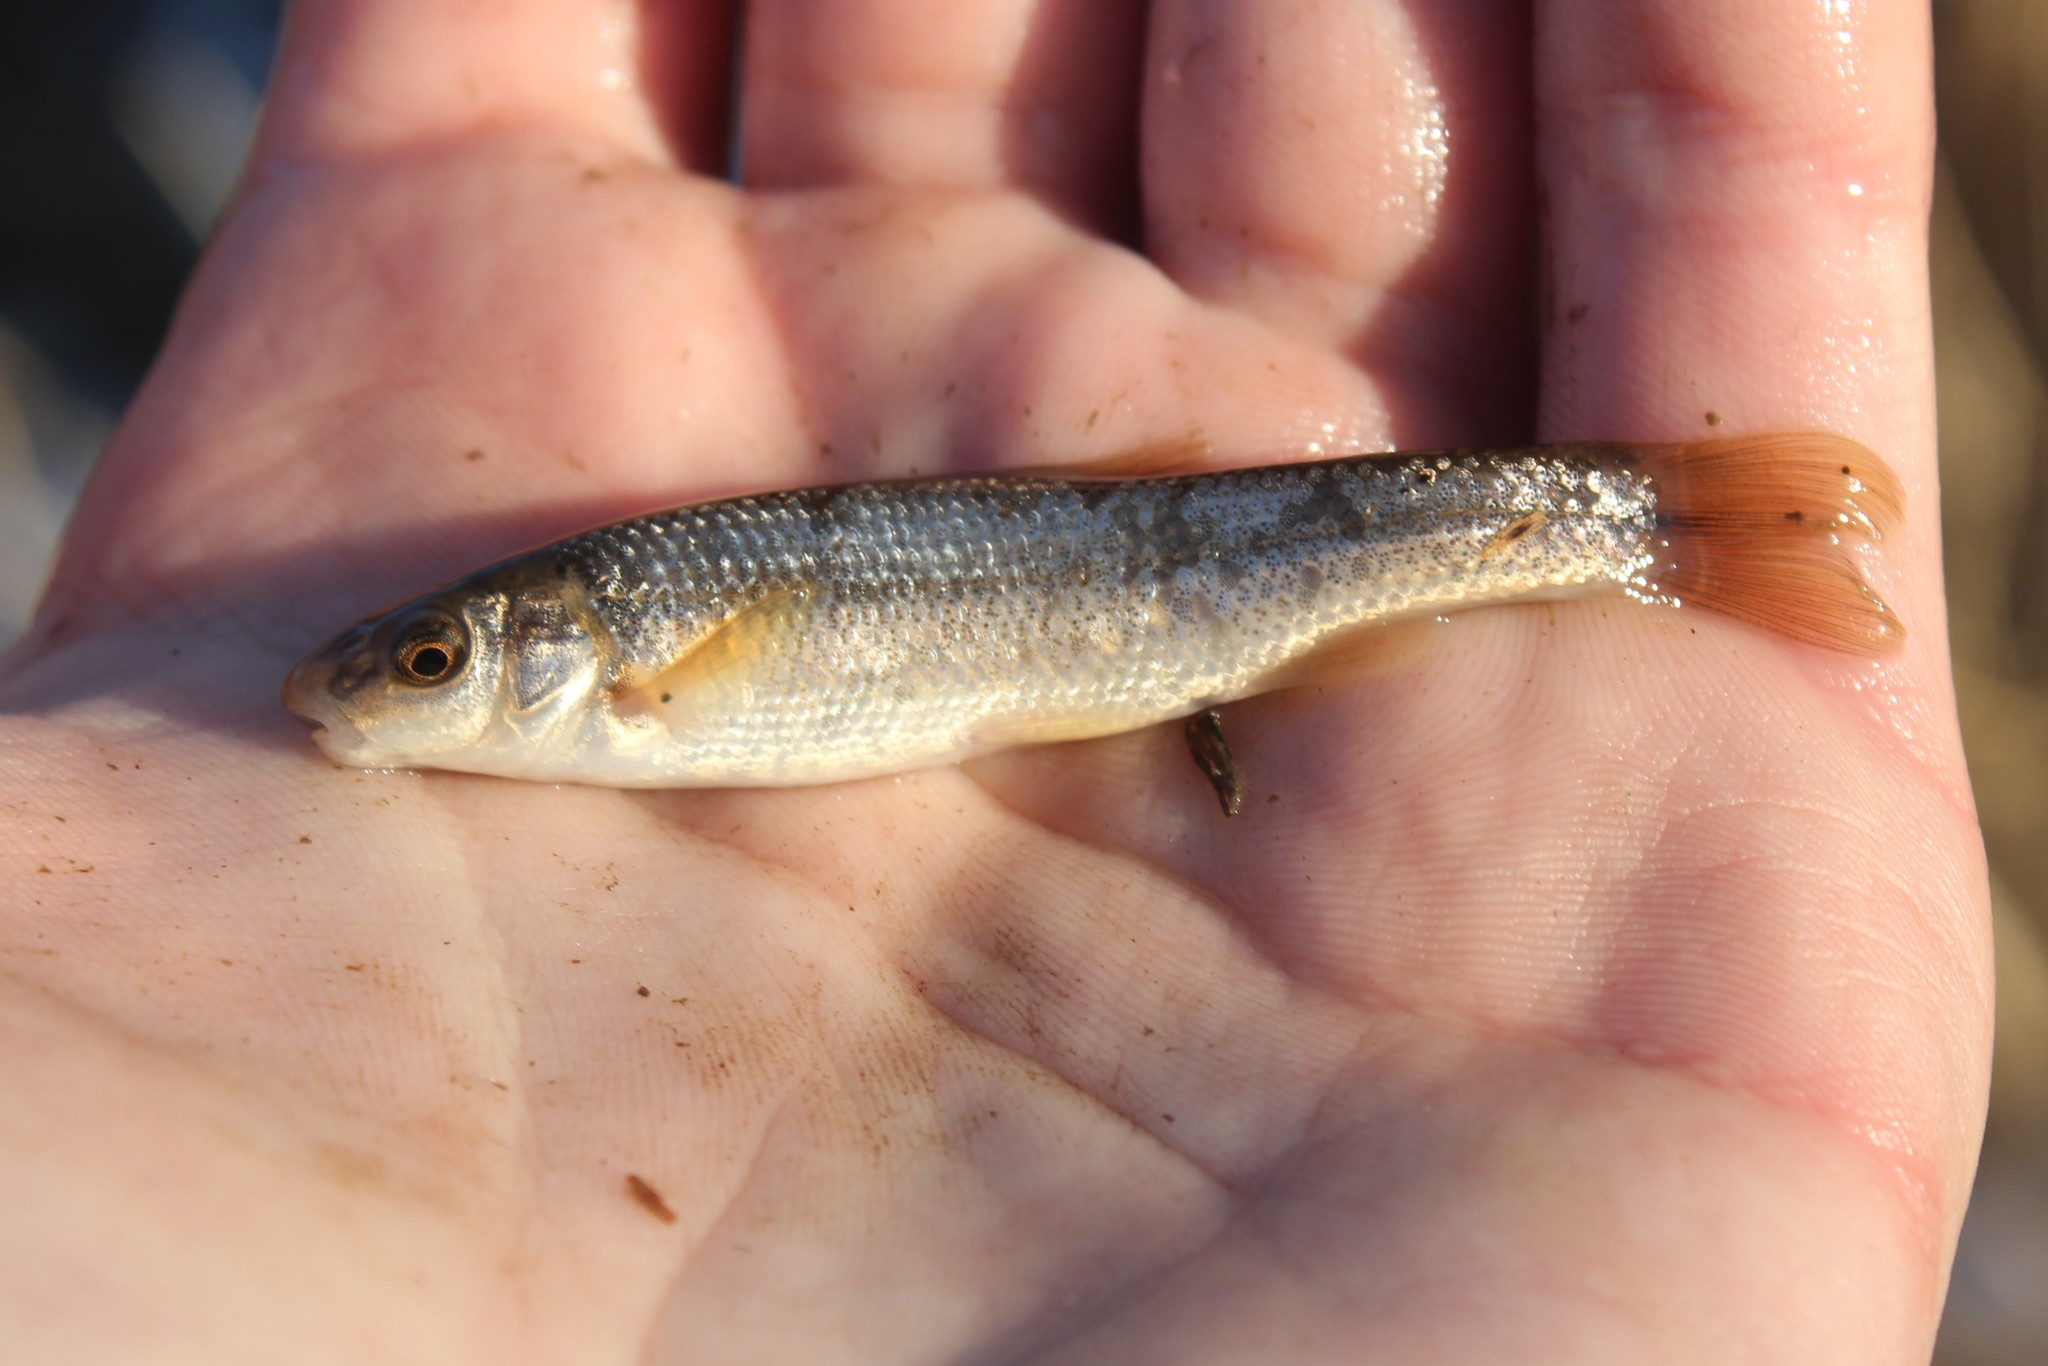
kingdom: Animalia
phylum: Chordata
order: Cypriniformes
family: Cyprinidae
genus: Campostoma
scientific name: Campostoma anomalum
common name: Central stoneroller
